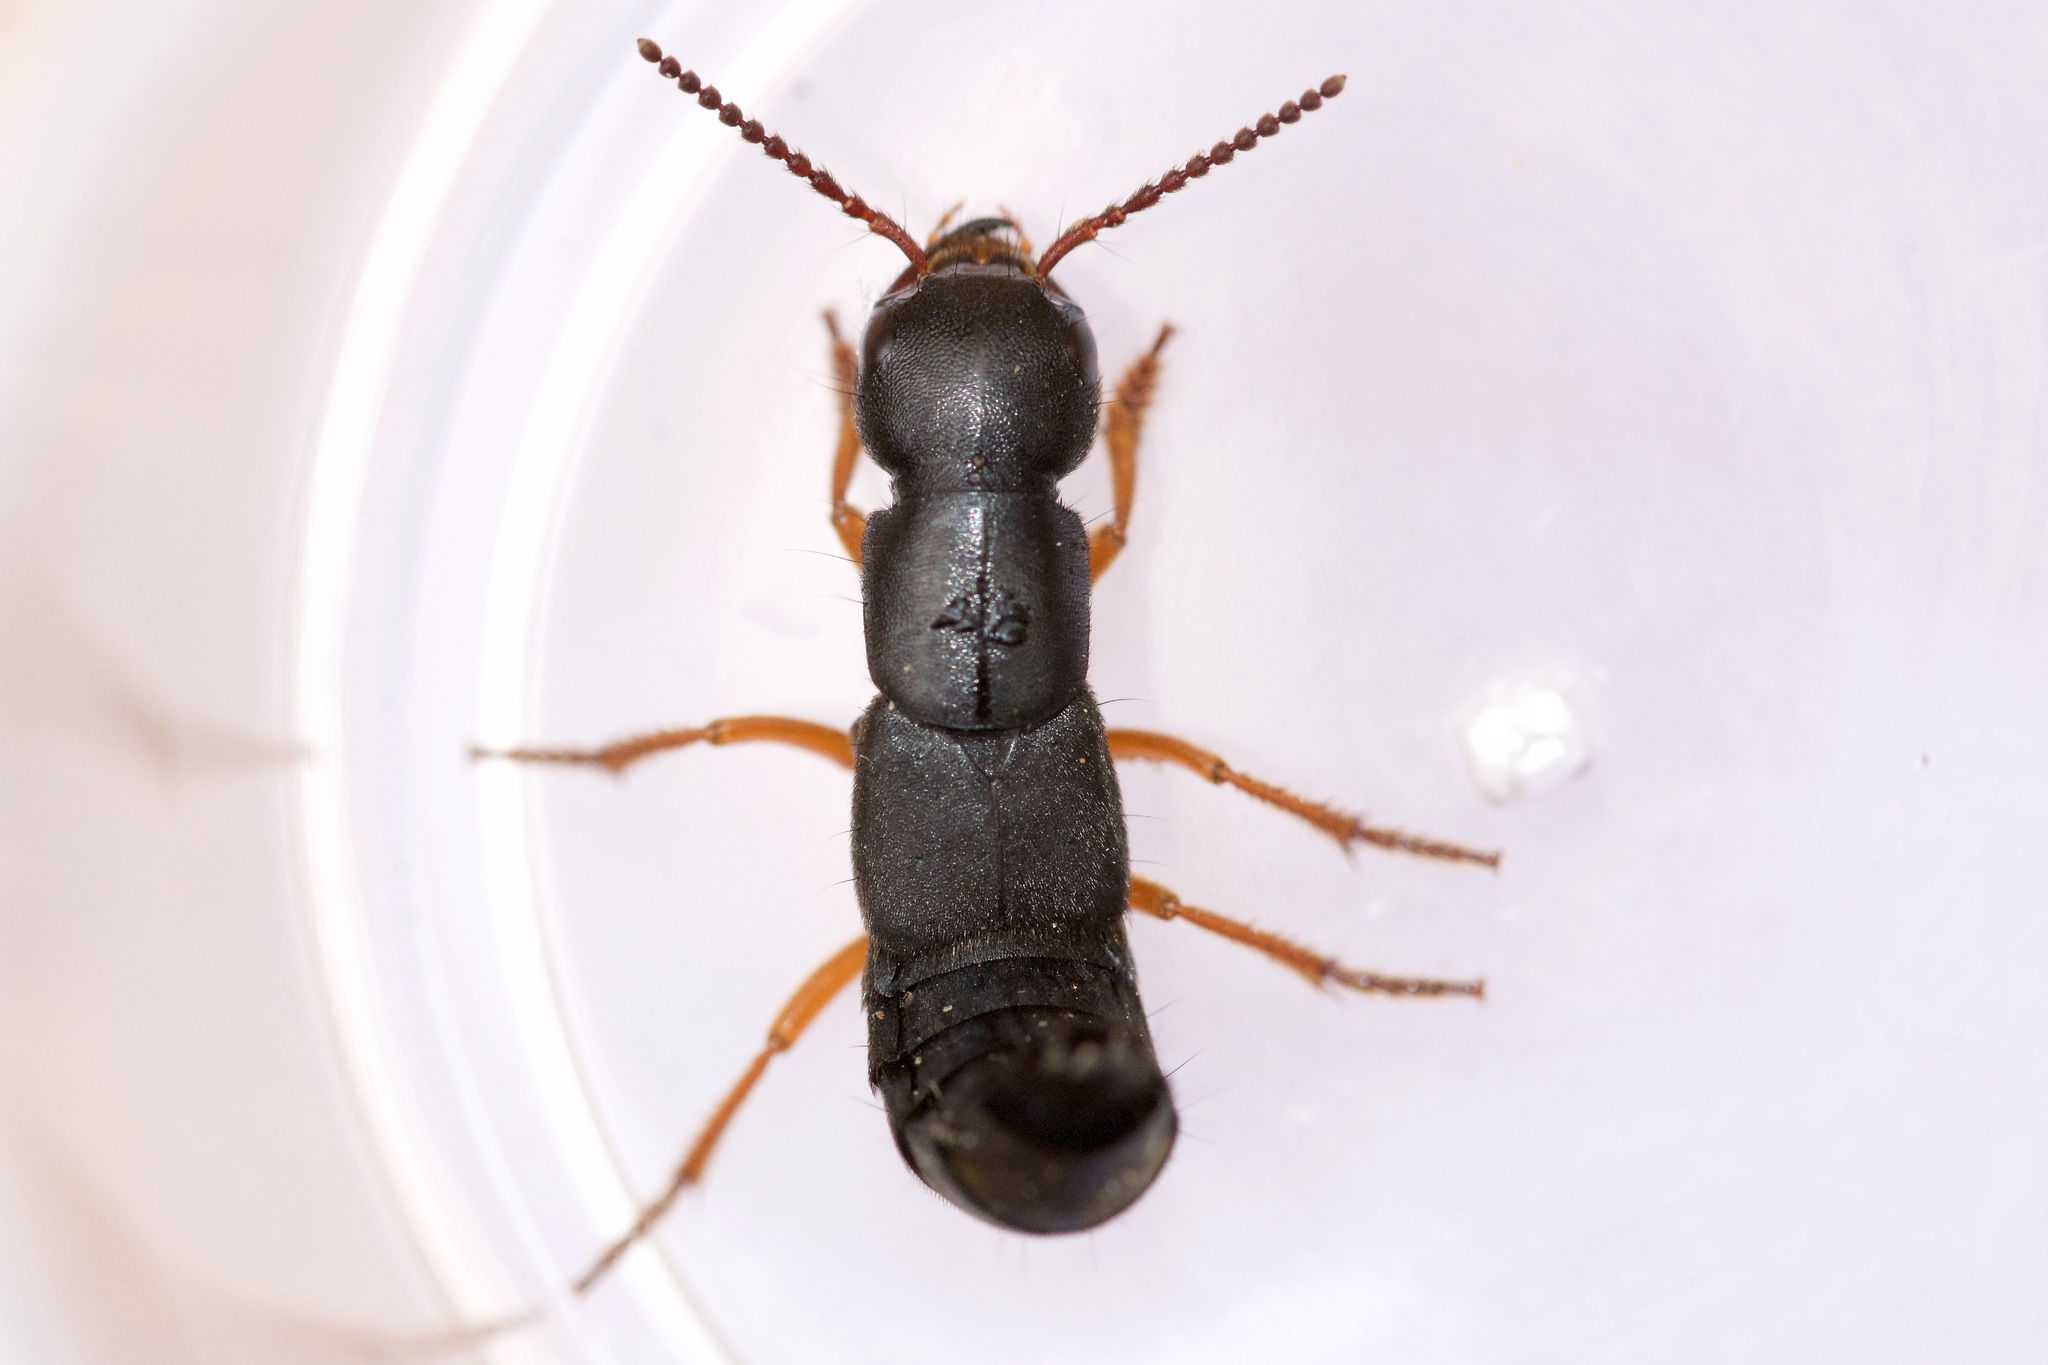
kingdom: Animalia
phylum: Arthropoda
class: Insecta
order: Coleoptera
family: Staphylinidae
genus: Dinothenarus
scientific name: Dinothenarus badipes
